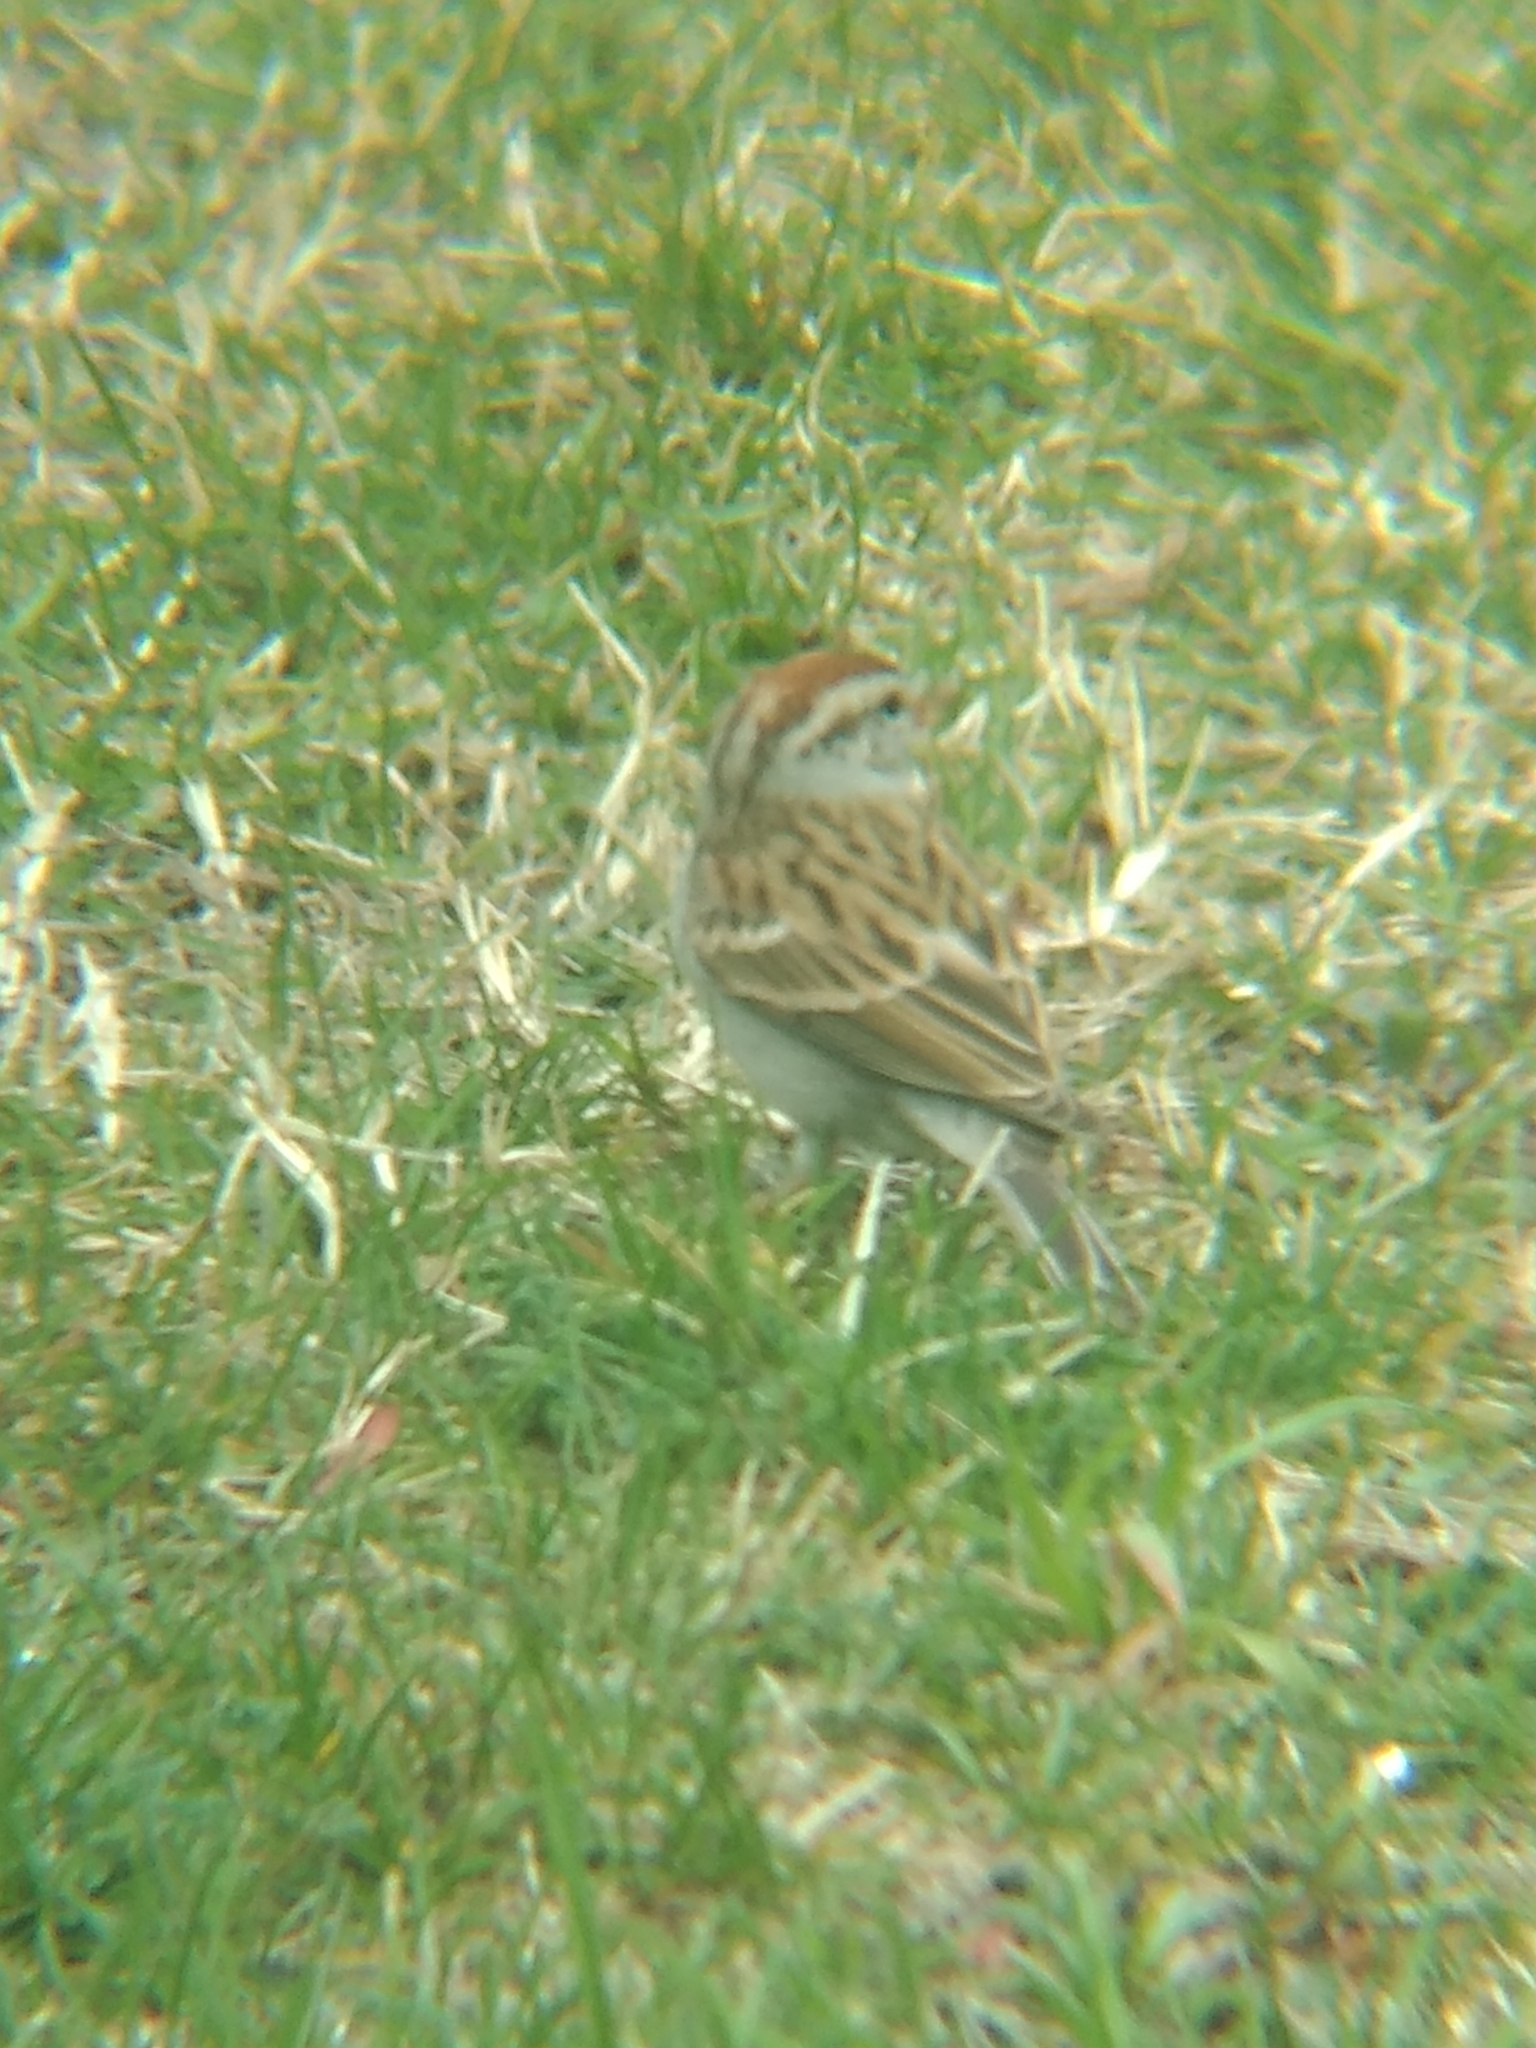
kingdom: Animalia
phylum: Chordata
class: Aves
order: Passeriformes
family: Passerellidae
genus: Spizella
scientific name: Spizella passerina
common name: Chipping sparrow
